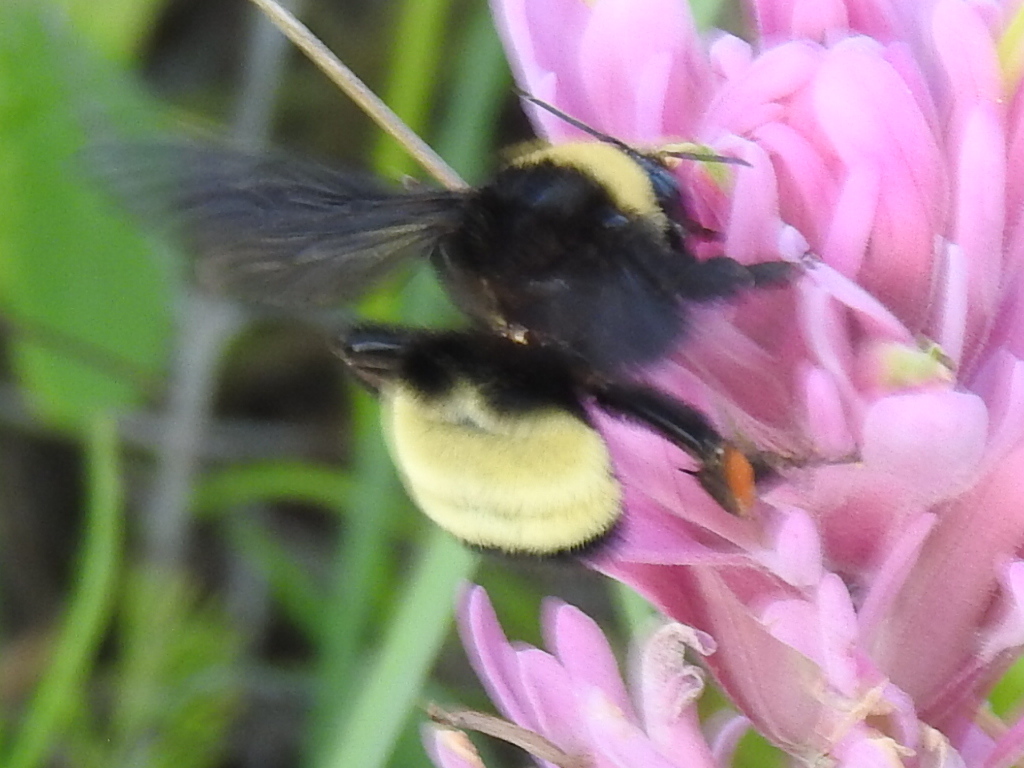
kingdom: Animalia
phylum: Arthropoda
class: Insecta
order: Hymenoptera
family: Apidae
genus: Bombus
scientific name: Bombus pensylvanicus
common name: Bumble bee
